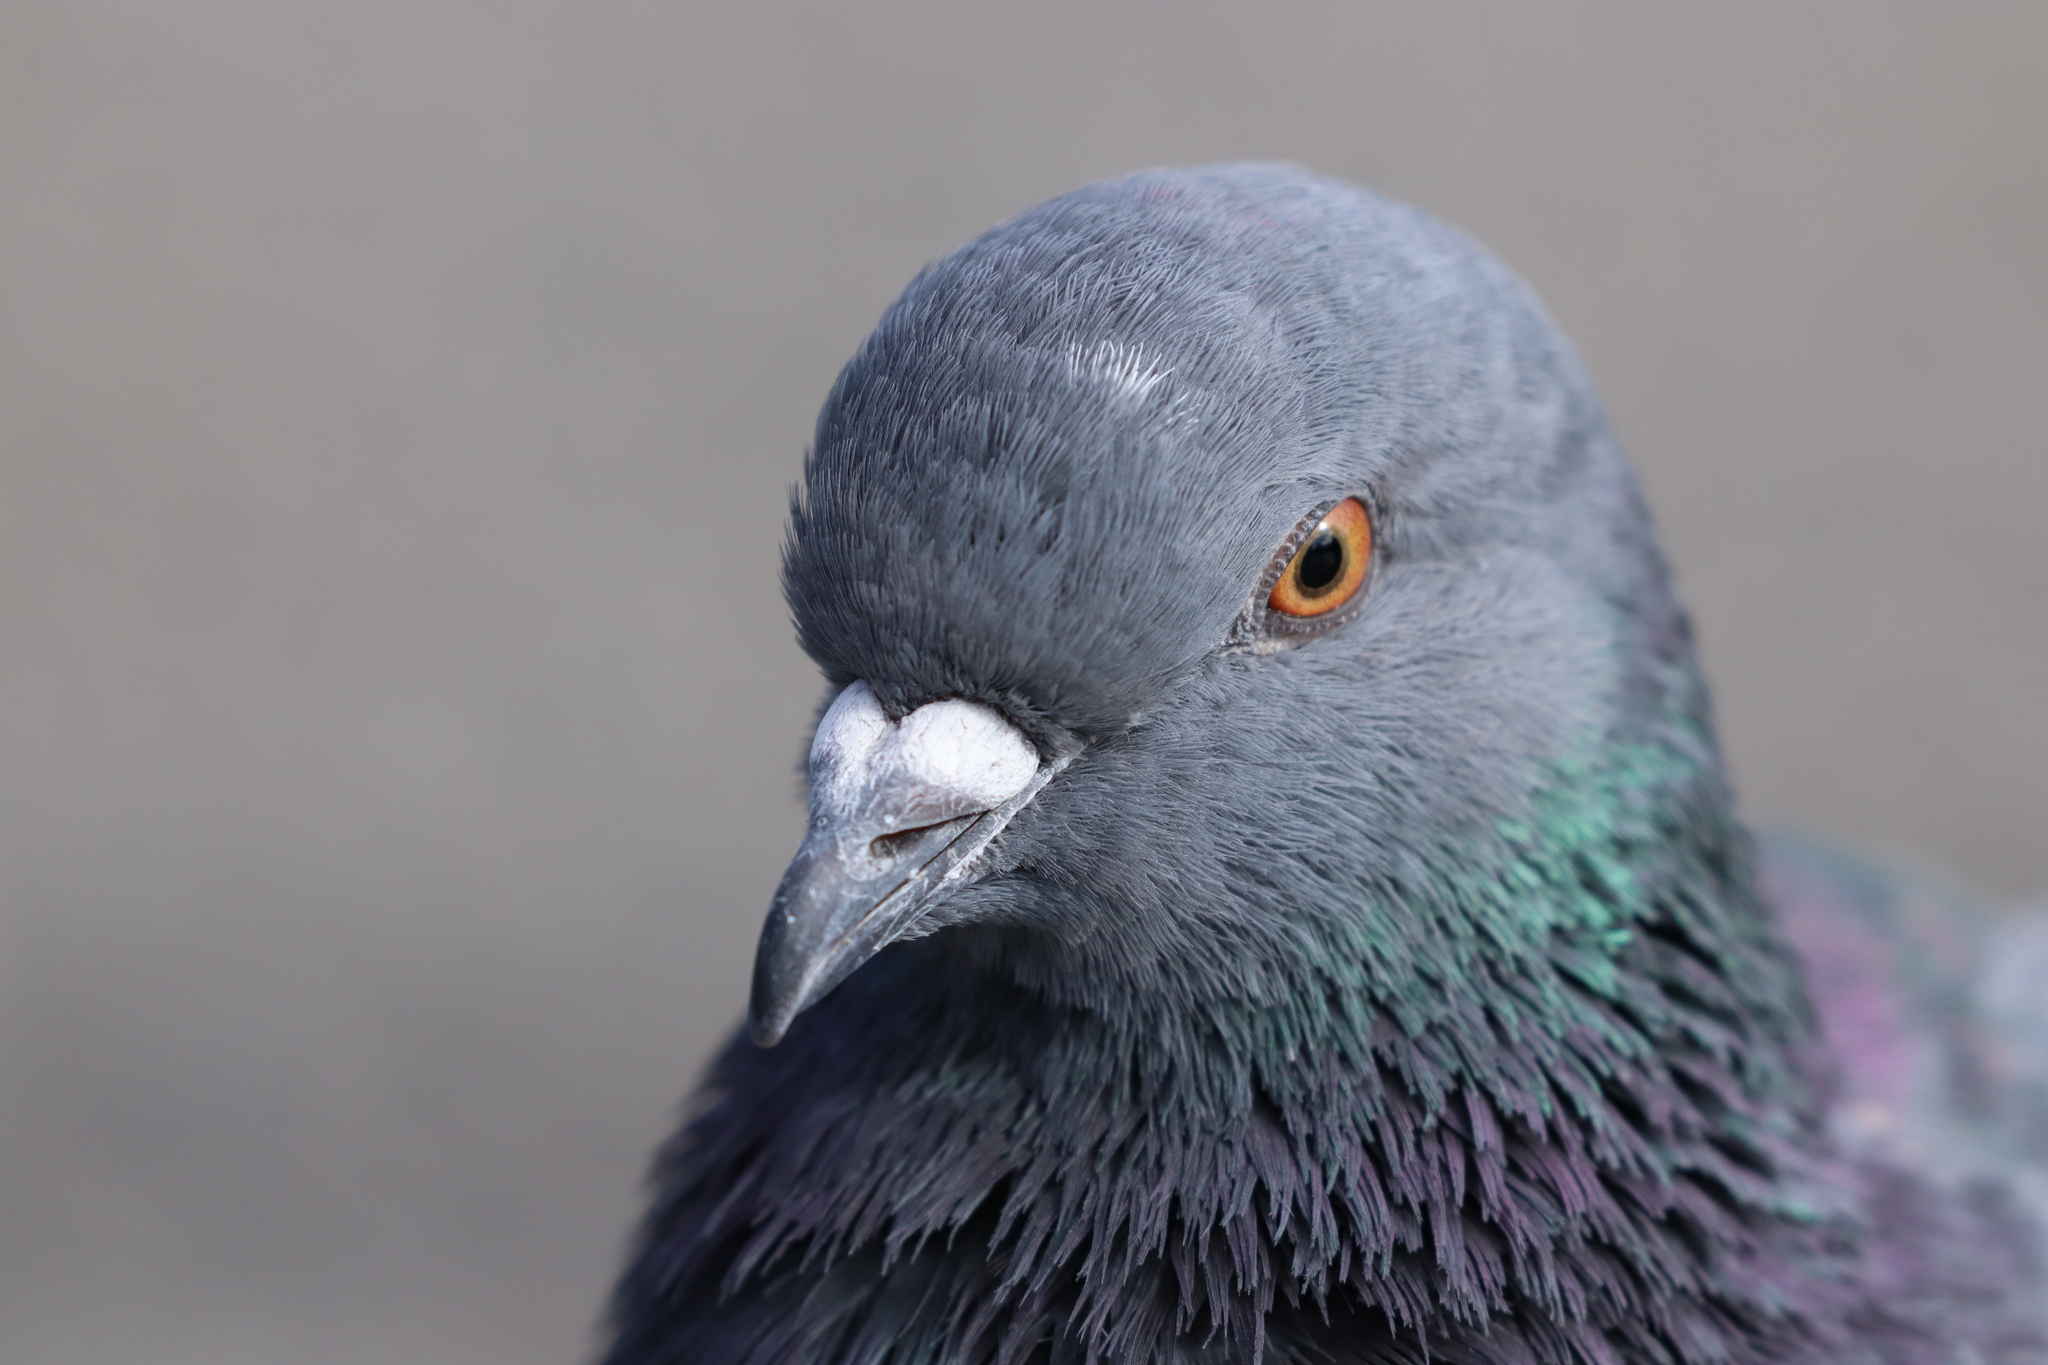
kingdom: Animalia
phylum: Chordata
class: Aves
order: Columbiformes
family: Columbidae
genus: Columba
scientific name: Columba livia
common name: Rock pigeon
